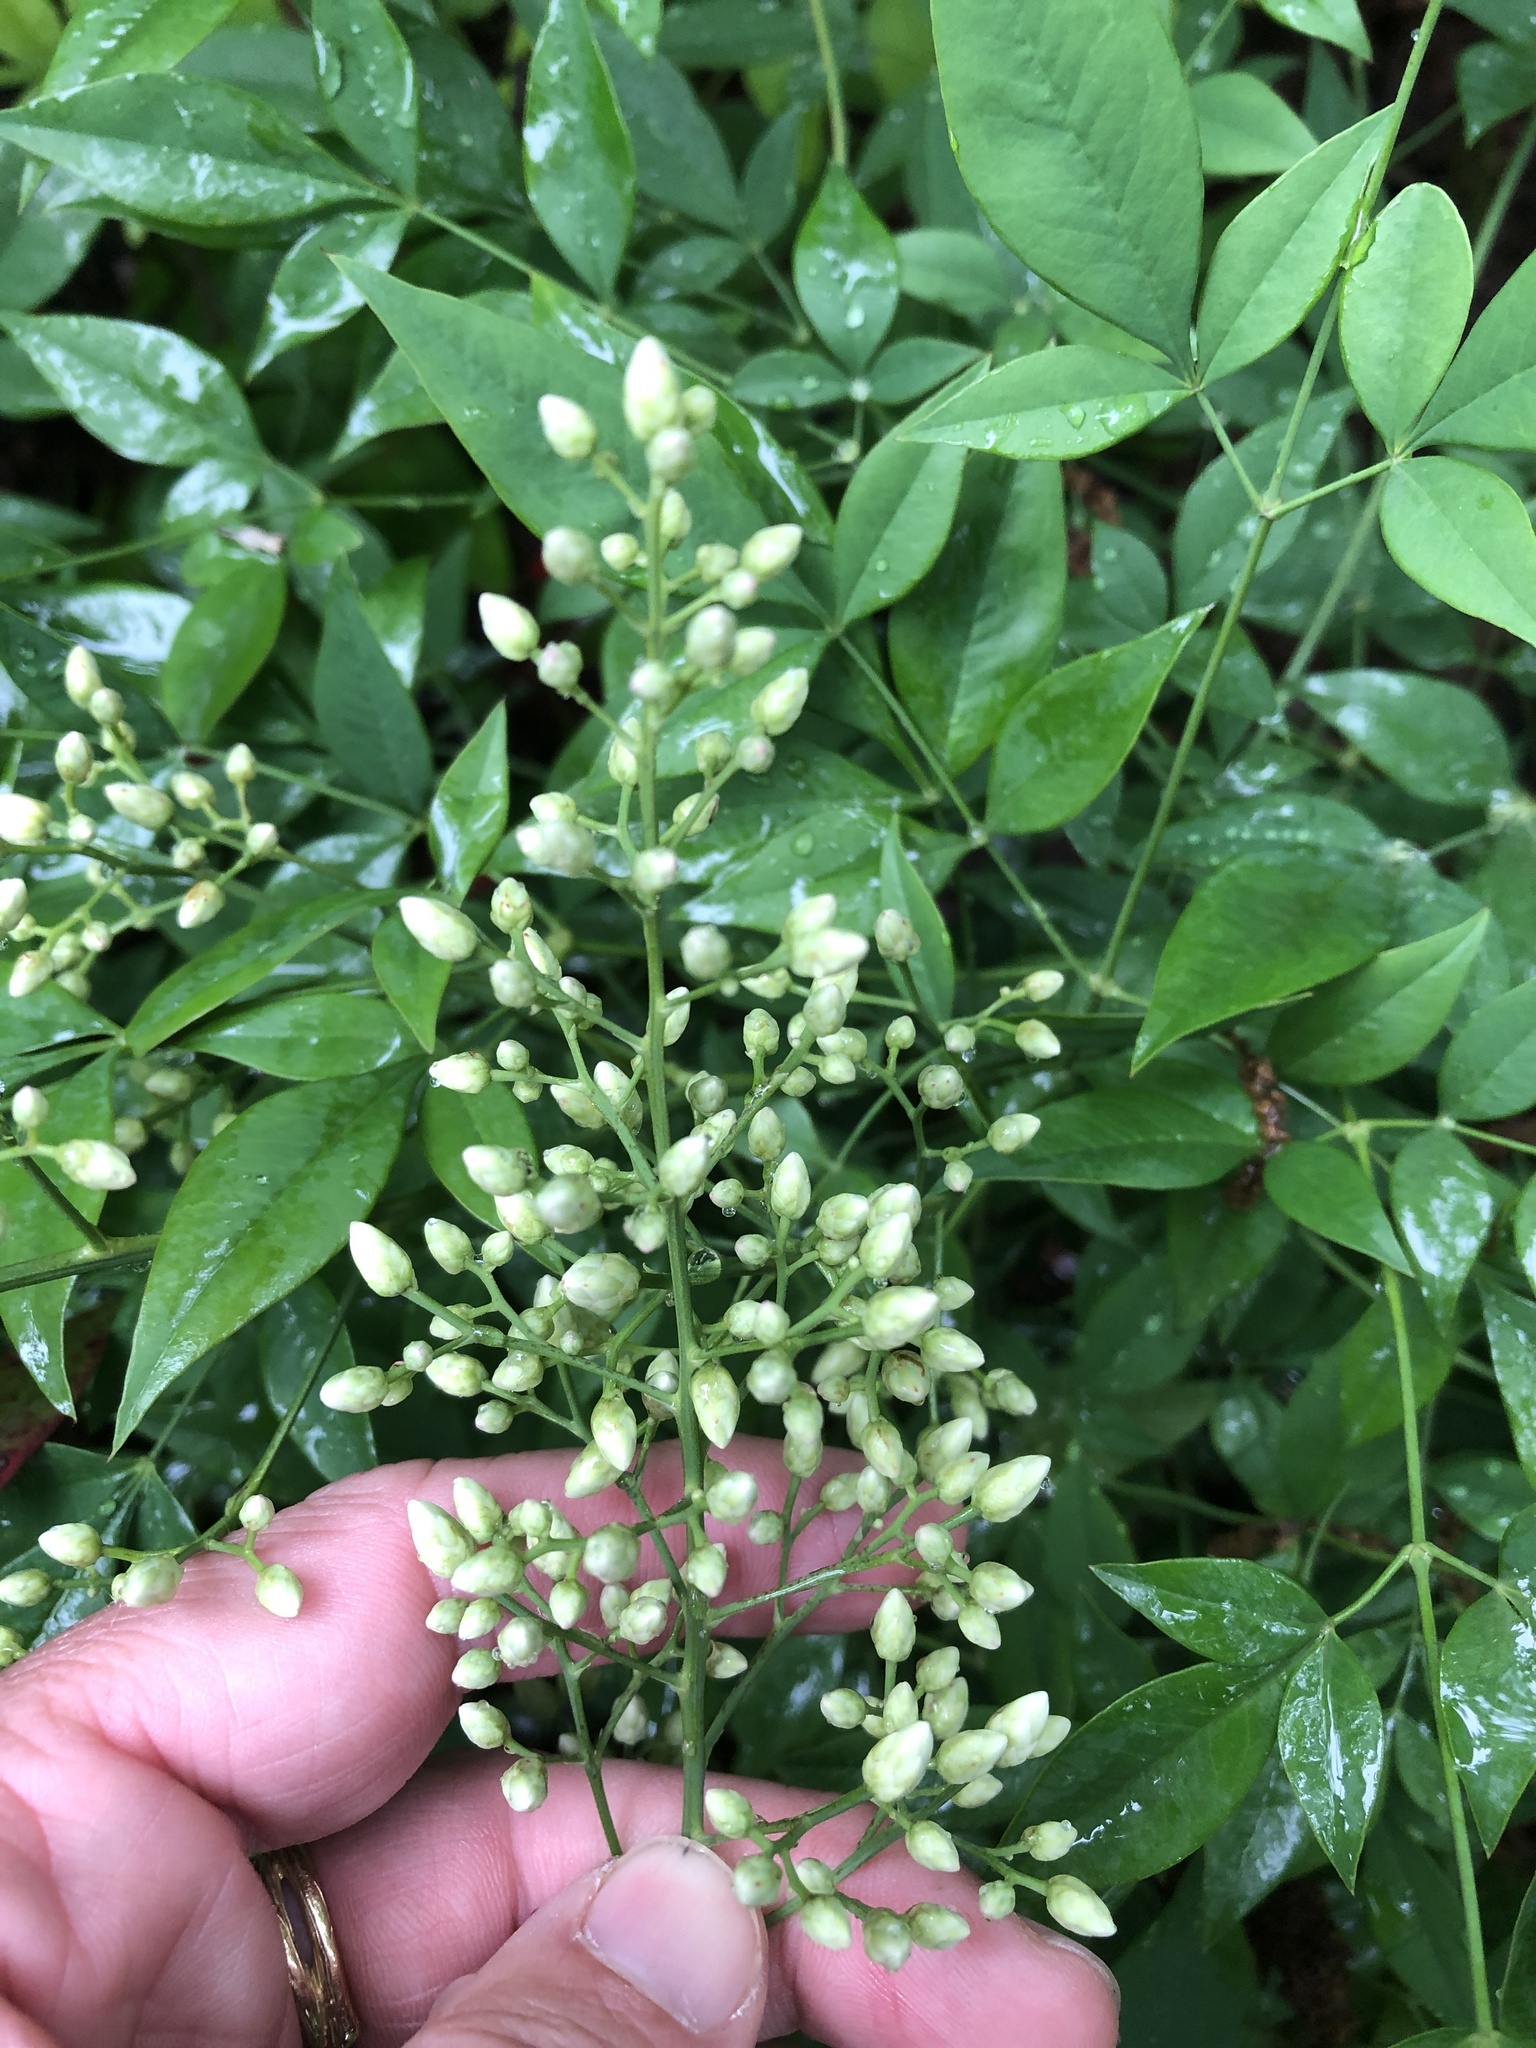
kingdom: Plantae
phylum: Tracheophyta
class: Magnoliopsida
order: Ranunculales
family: Berberidaceae
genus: Nandina
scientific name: Nandina domestica
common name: Sacred bamboo
